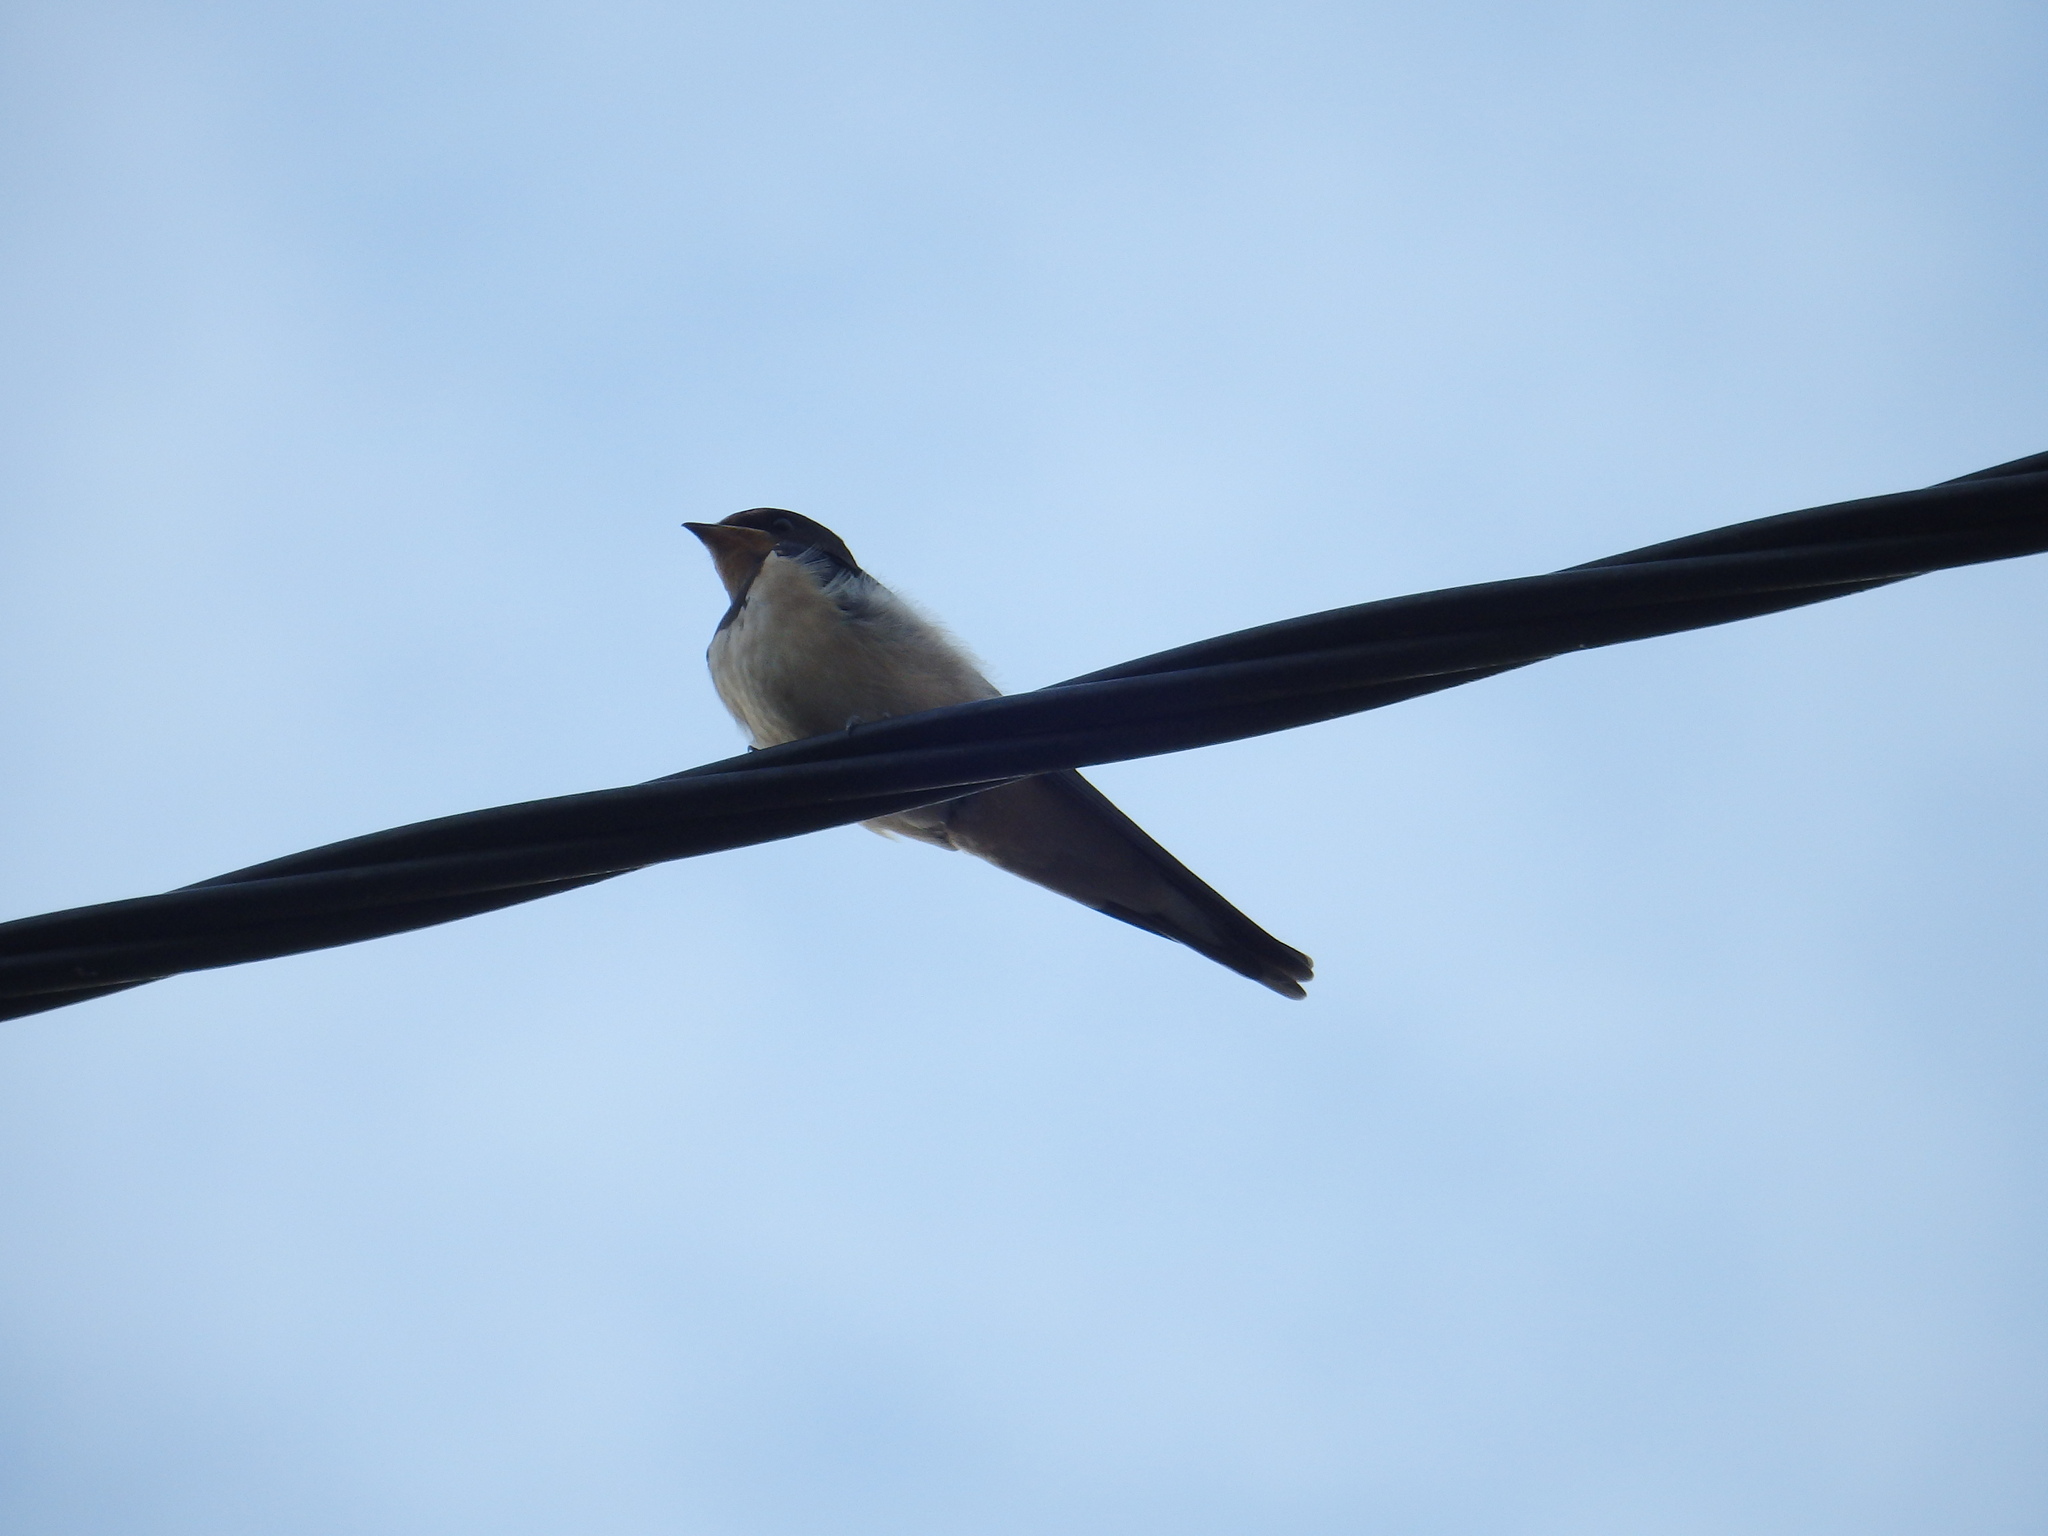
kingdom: Animalia
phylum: Chordata
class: Aves
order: Passeriformes
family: Hirundinidae
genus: Hirundo
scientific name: Hirundo rustica
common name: Barn swallow
